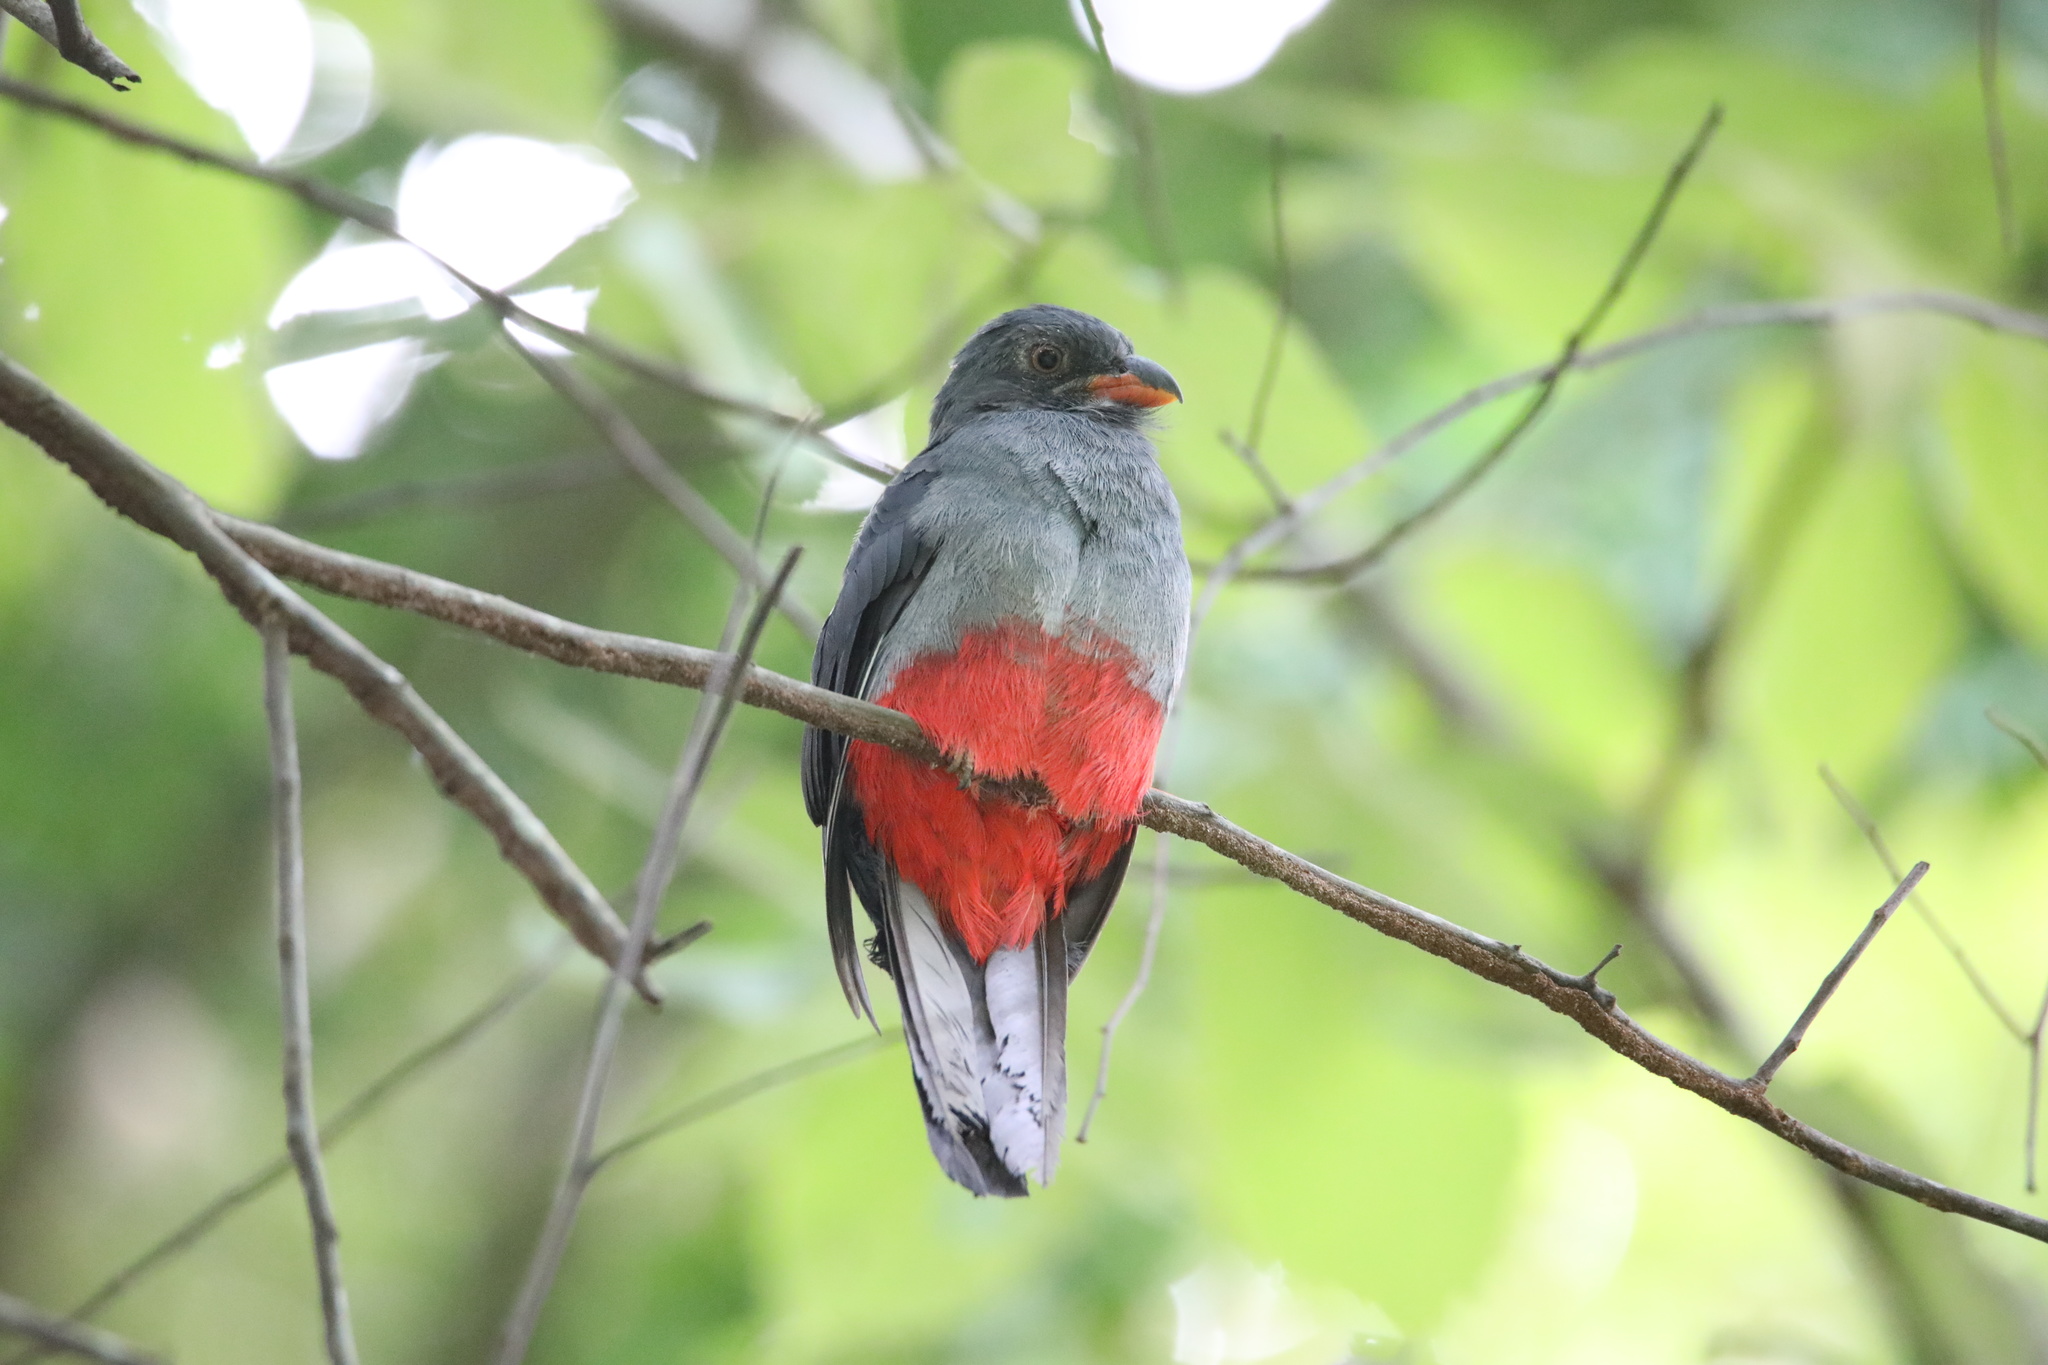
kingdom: Animalia
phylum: Chordata
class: Aves
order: Trogoniformes
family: Trogonidae
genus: Trogon
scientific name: Trogon massena
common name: Slaty-tailed trogon
